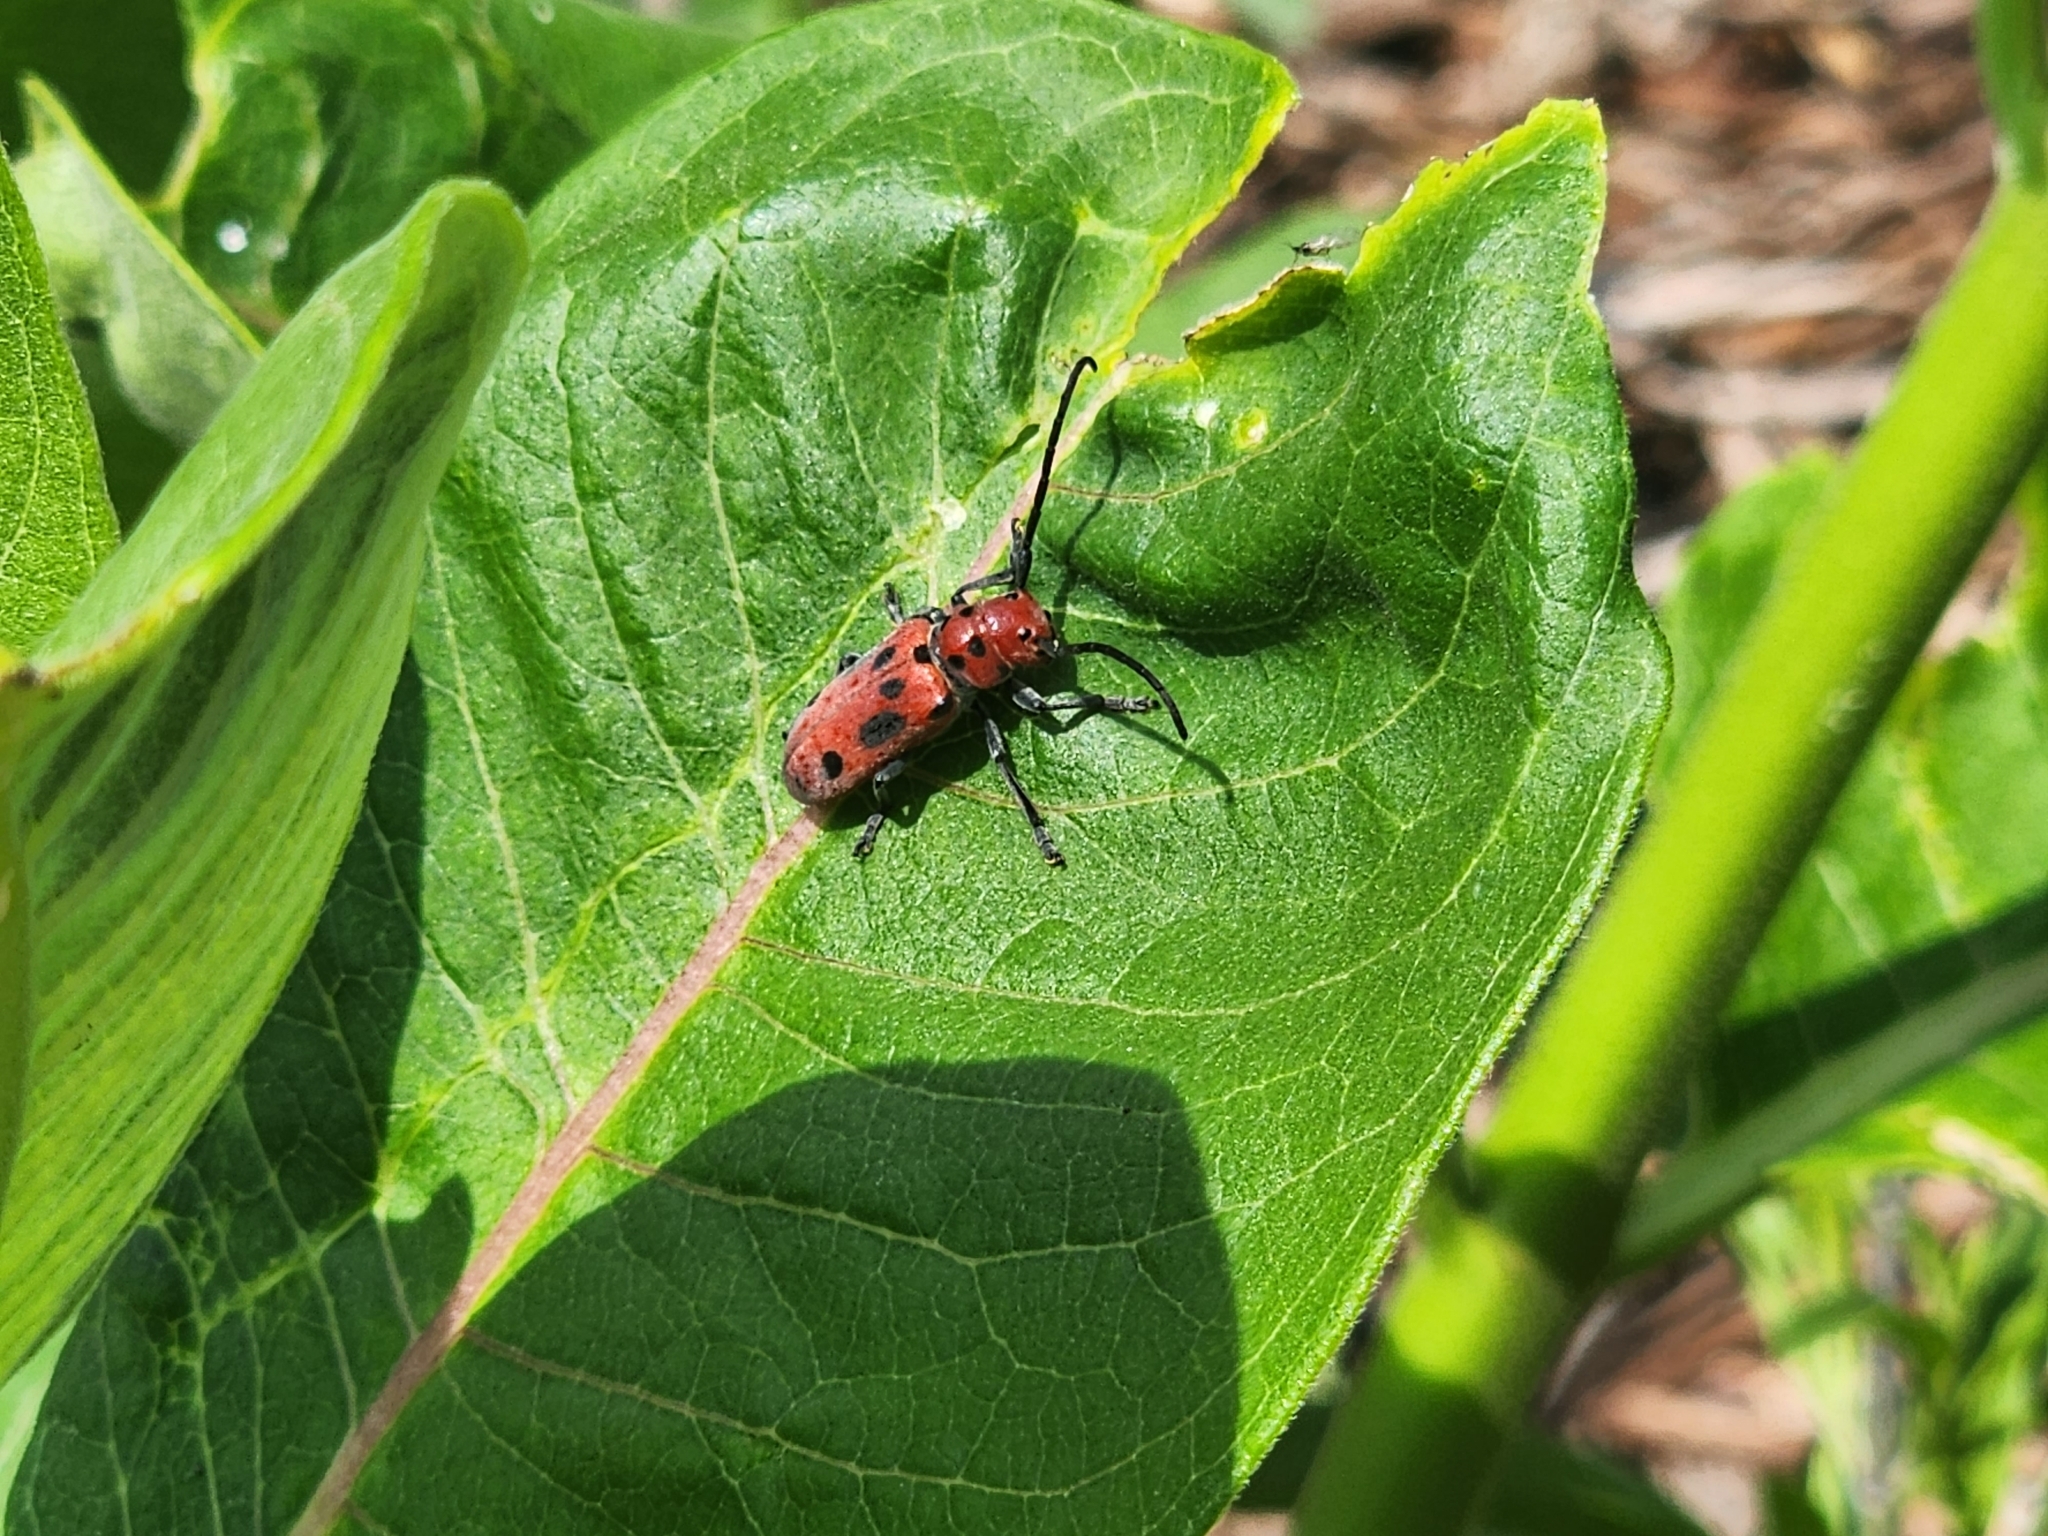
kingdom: Animalia
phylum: Arthropoda
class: Insecta
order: Coleoptera
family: Cerambycidae
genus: Tetraopes
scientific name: Tetraopes tetrophthalmus
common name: Red milkweed beetle
